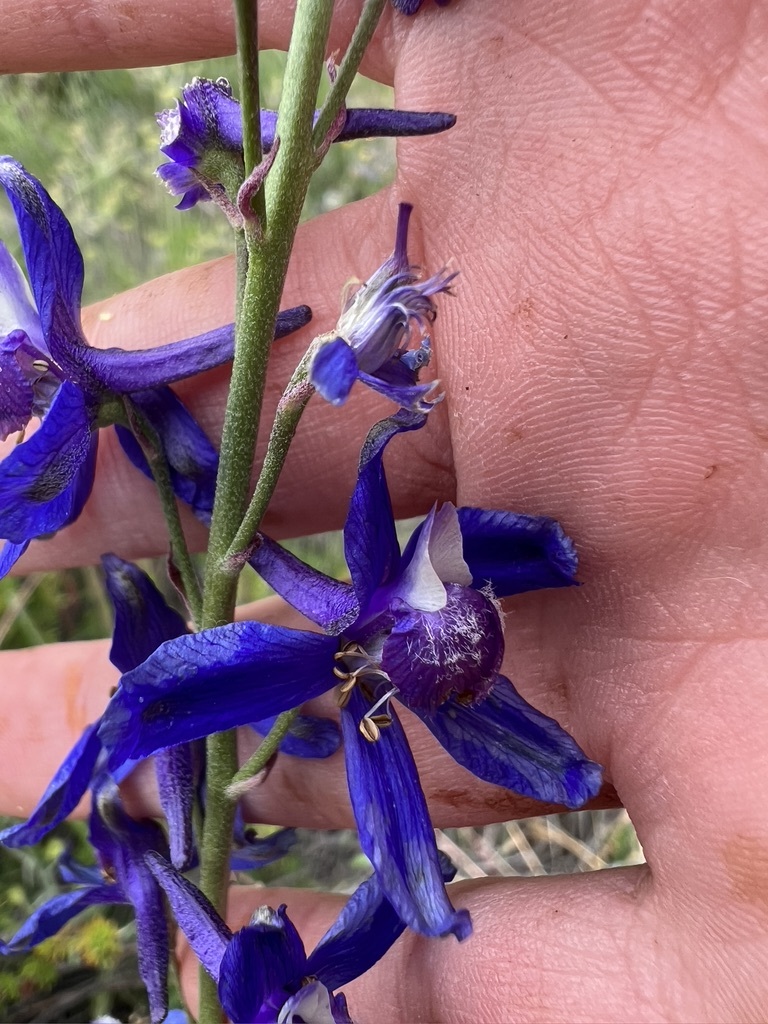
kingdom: Plantae
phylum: Tracheophyta
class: Magnoliopsida
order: Ranunculales
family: Ranunculaceae
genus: Delphinium
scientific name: Delphinium parryi
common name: Parry's larkspur
